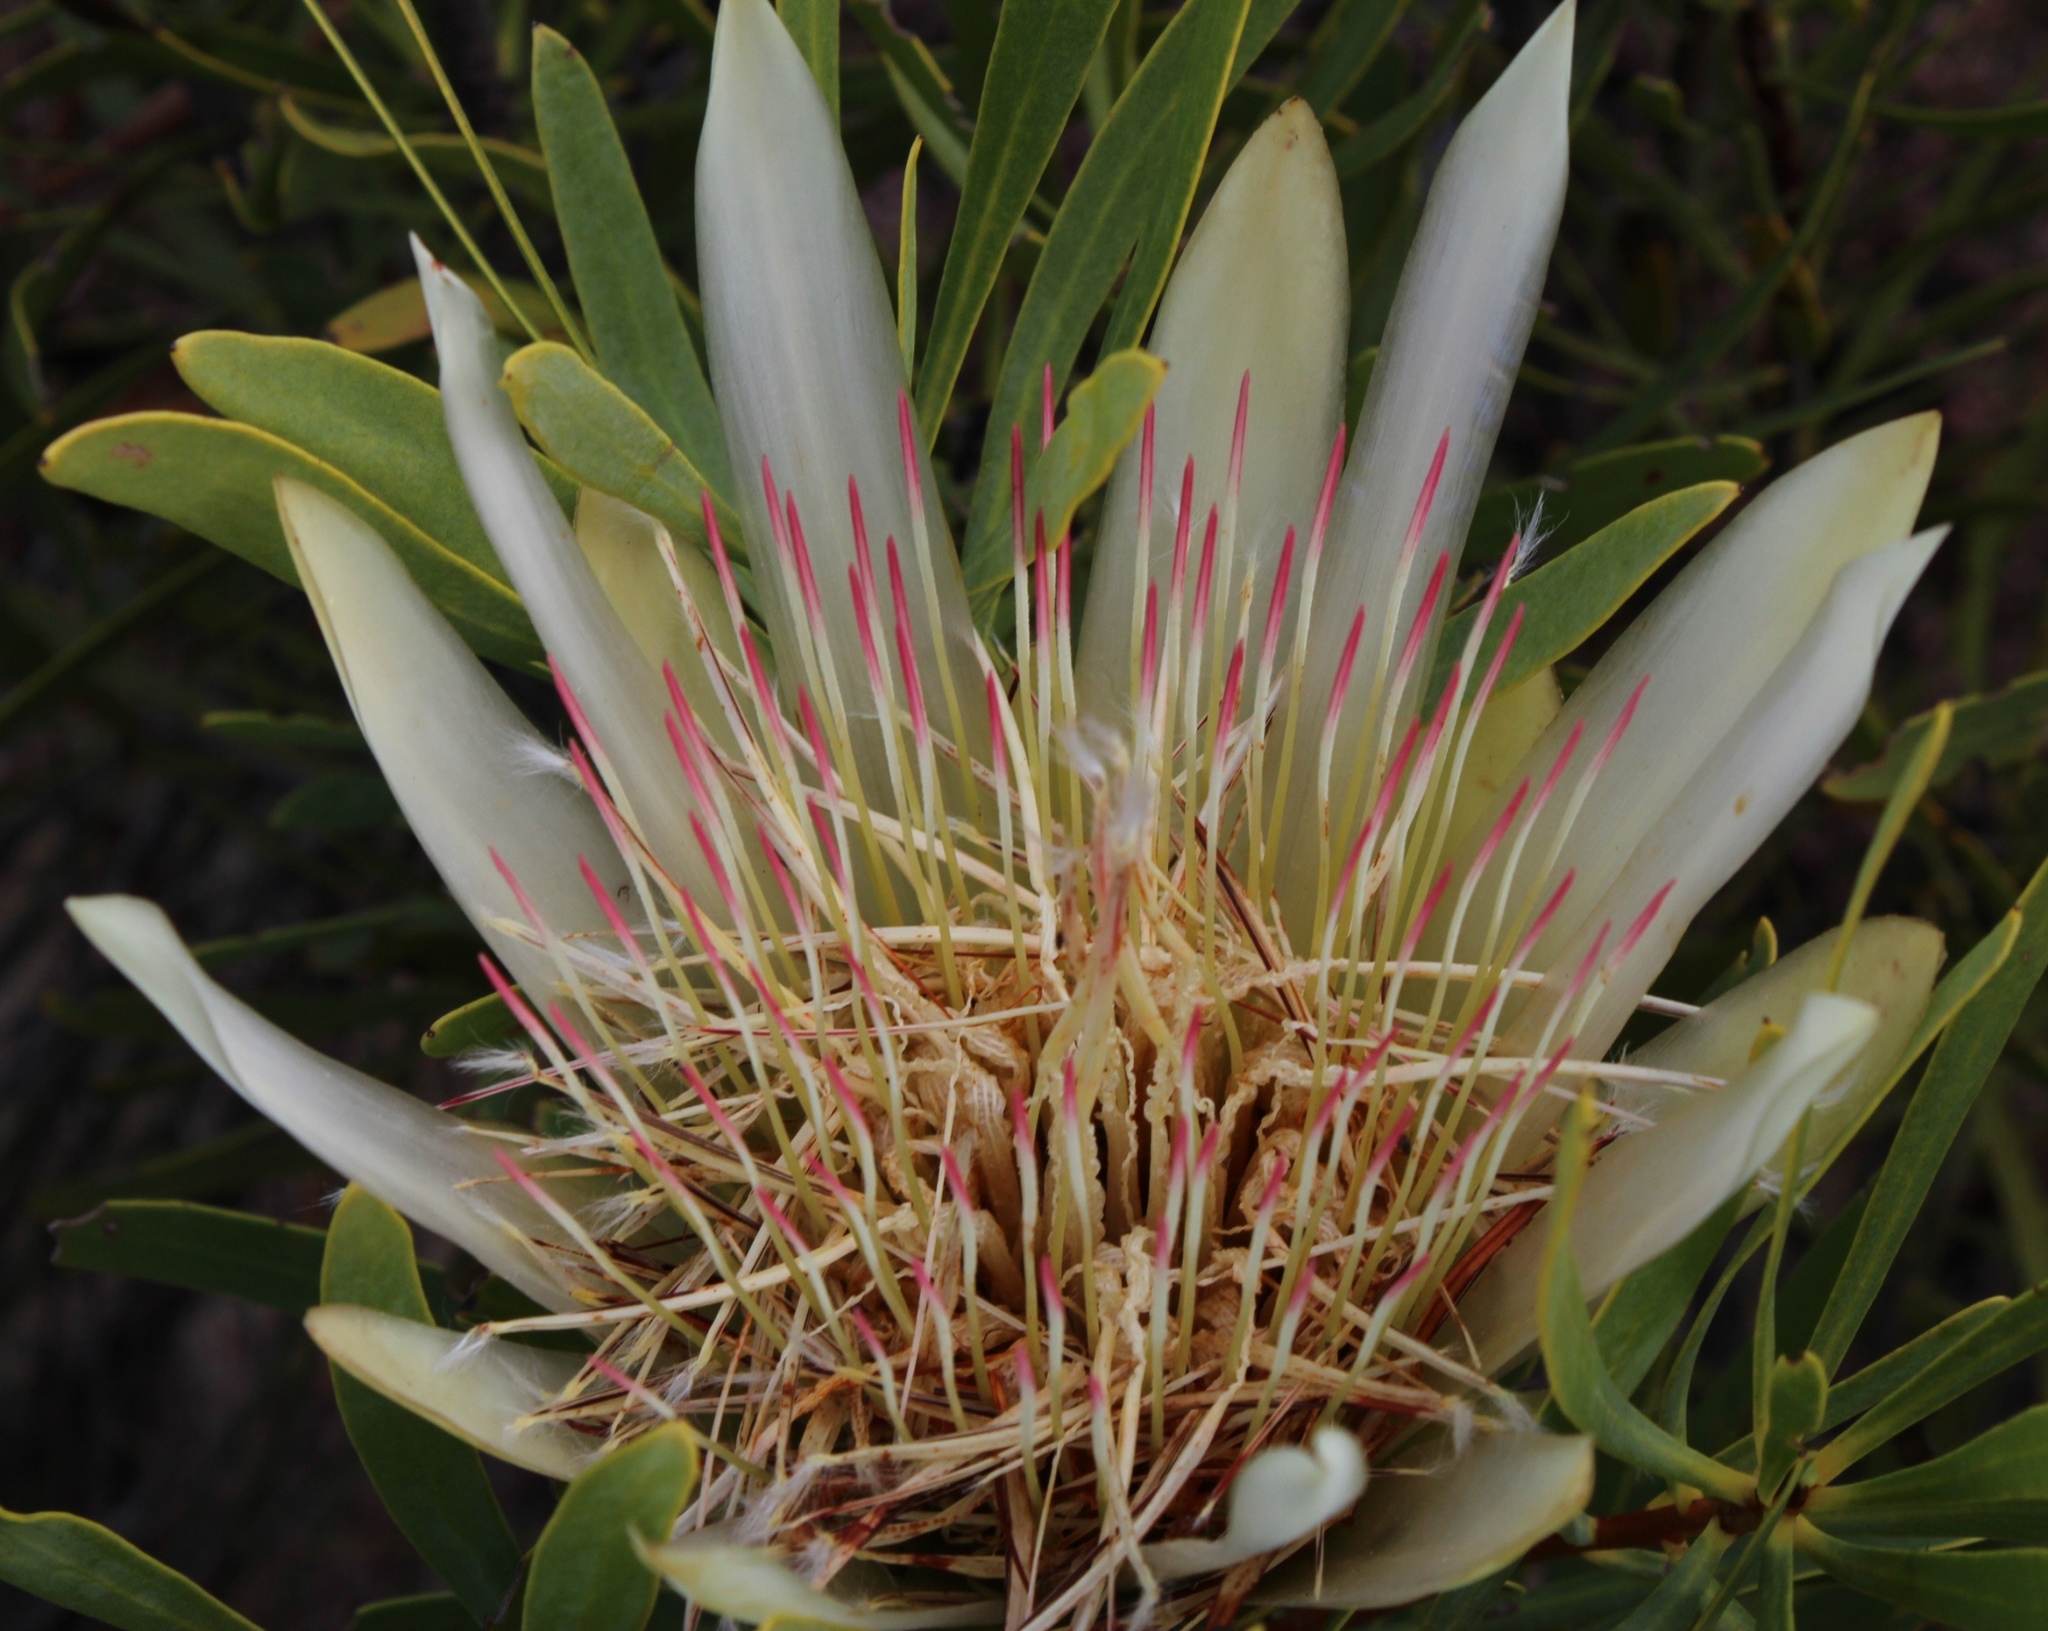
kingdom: Plantae
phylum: Tracheophyta
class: Magnoliopsida
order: Proteales
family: Proteaceae
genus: Protea
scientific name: Protea repens
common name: Sugarbush
